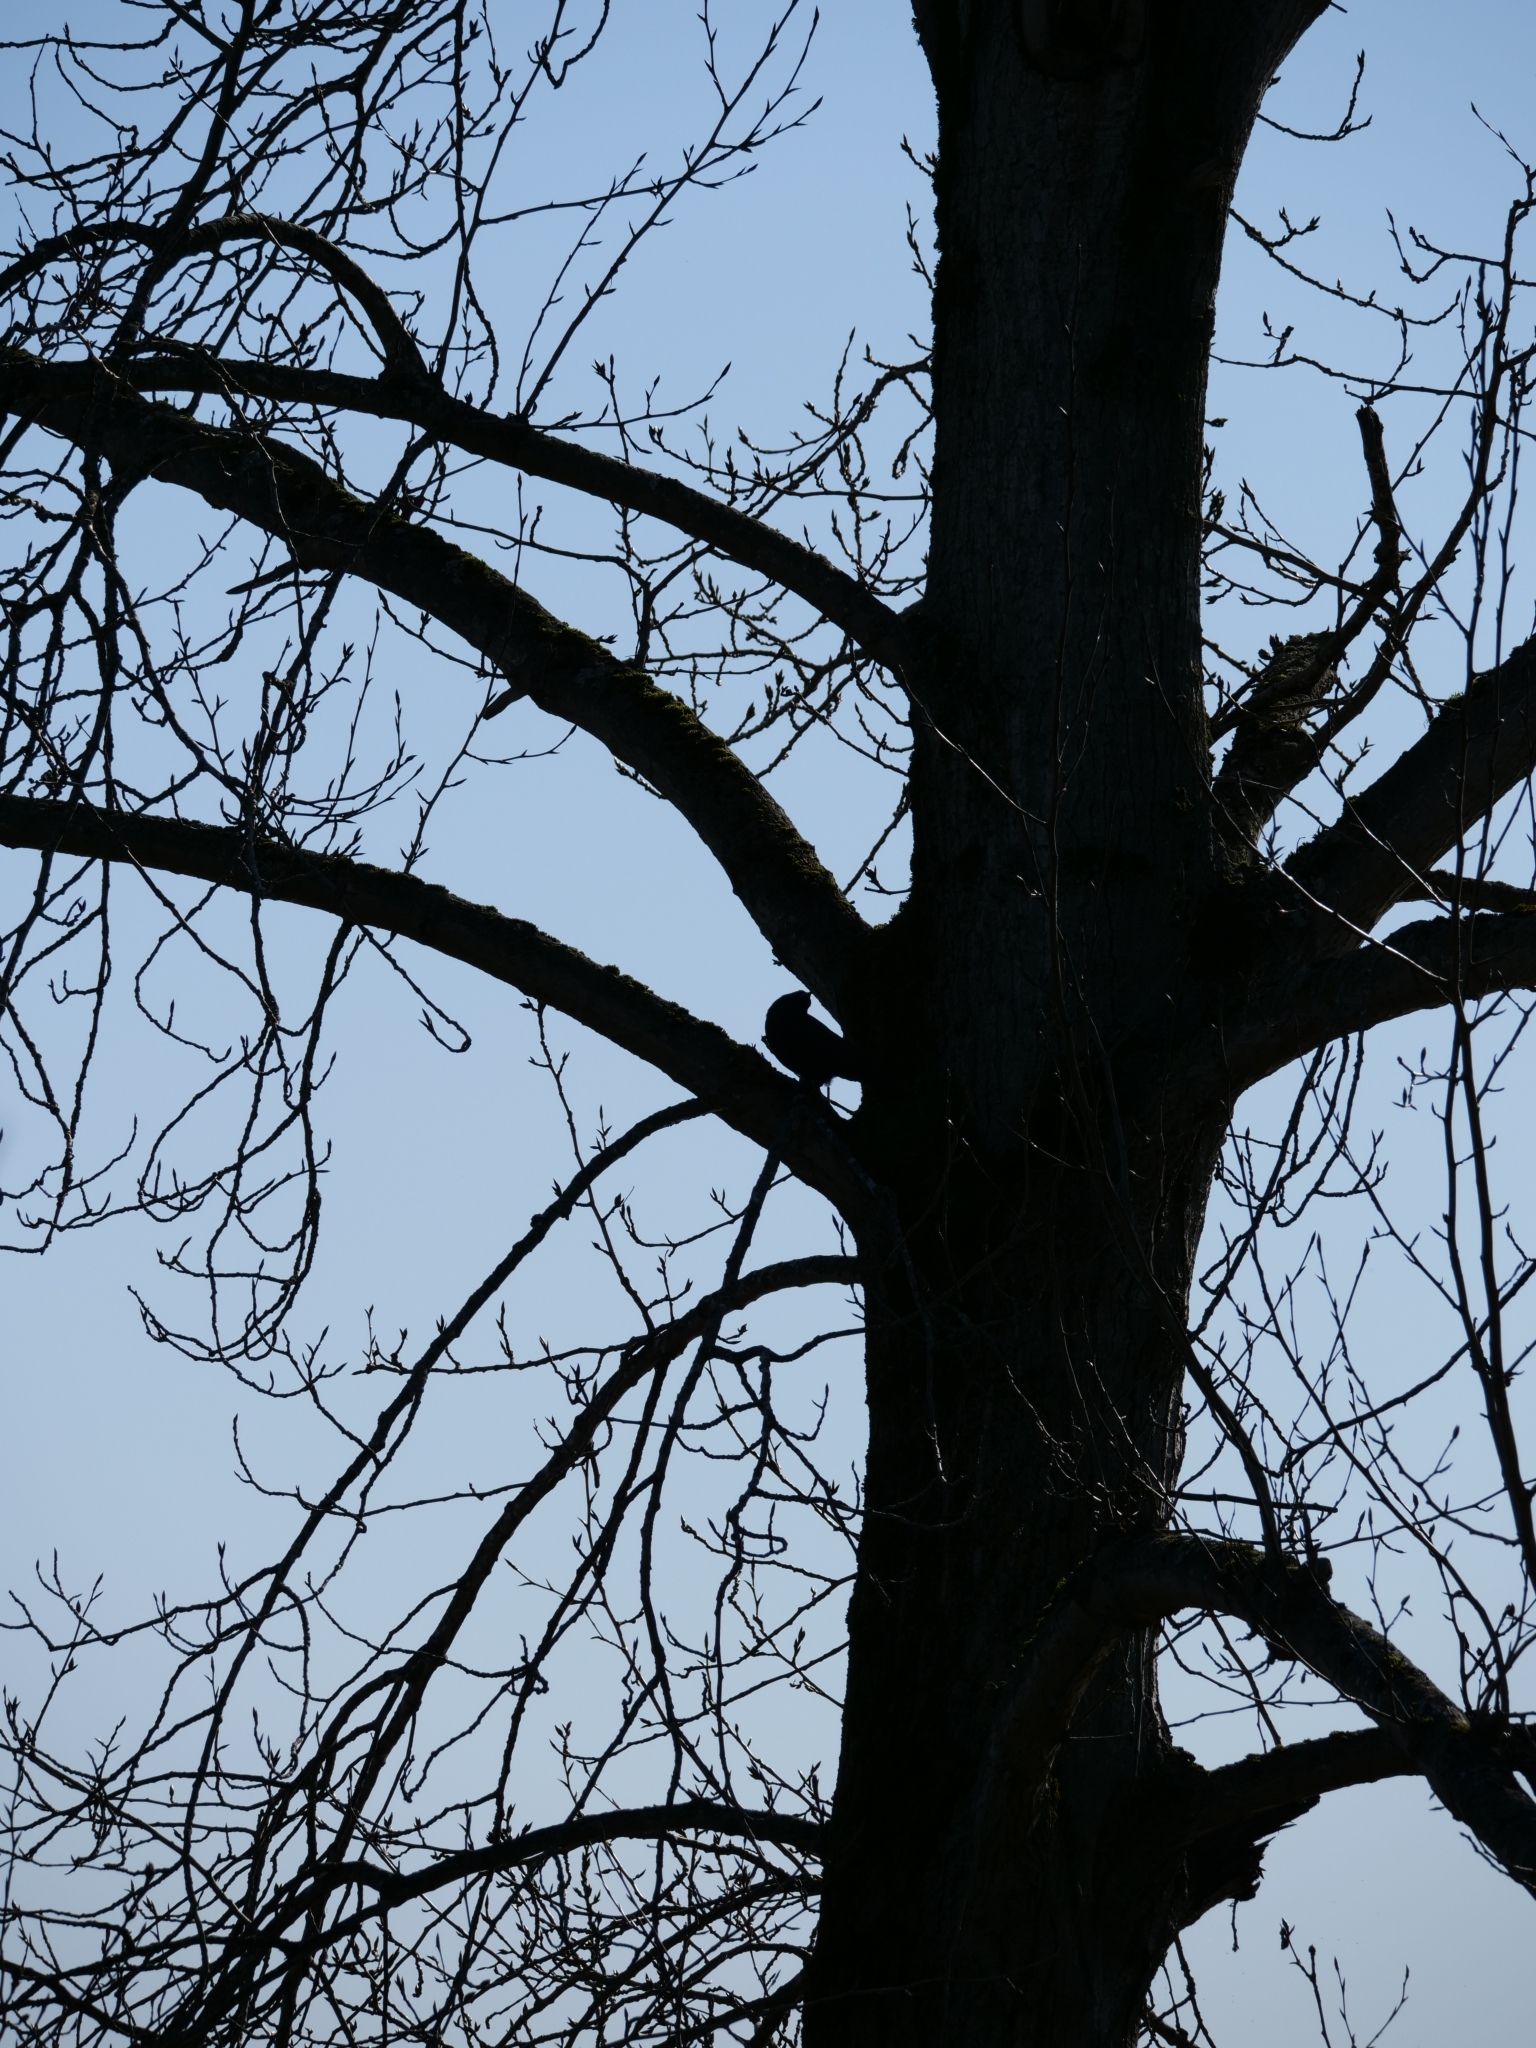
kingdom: Plantae
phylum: Tracheophyta
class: Magnoliopsida
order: Malpighiales
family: Salicaceae
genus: Populus
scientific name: Populus trichocarpa
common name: Black cottonwood
